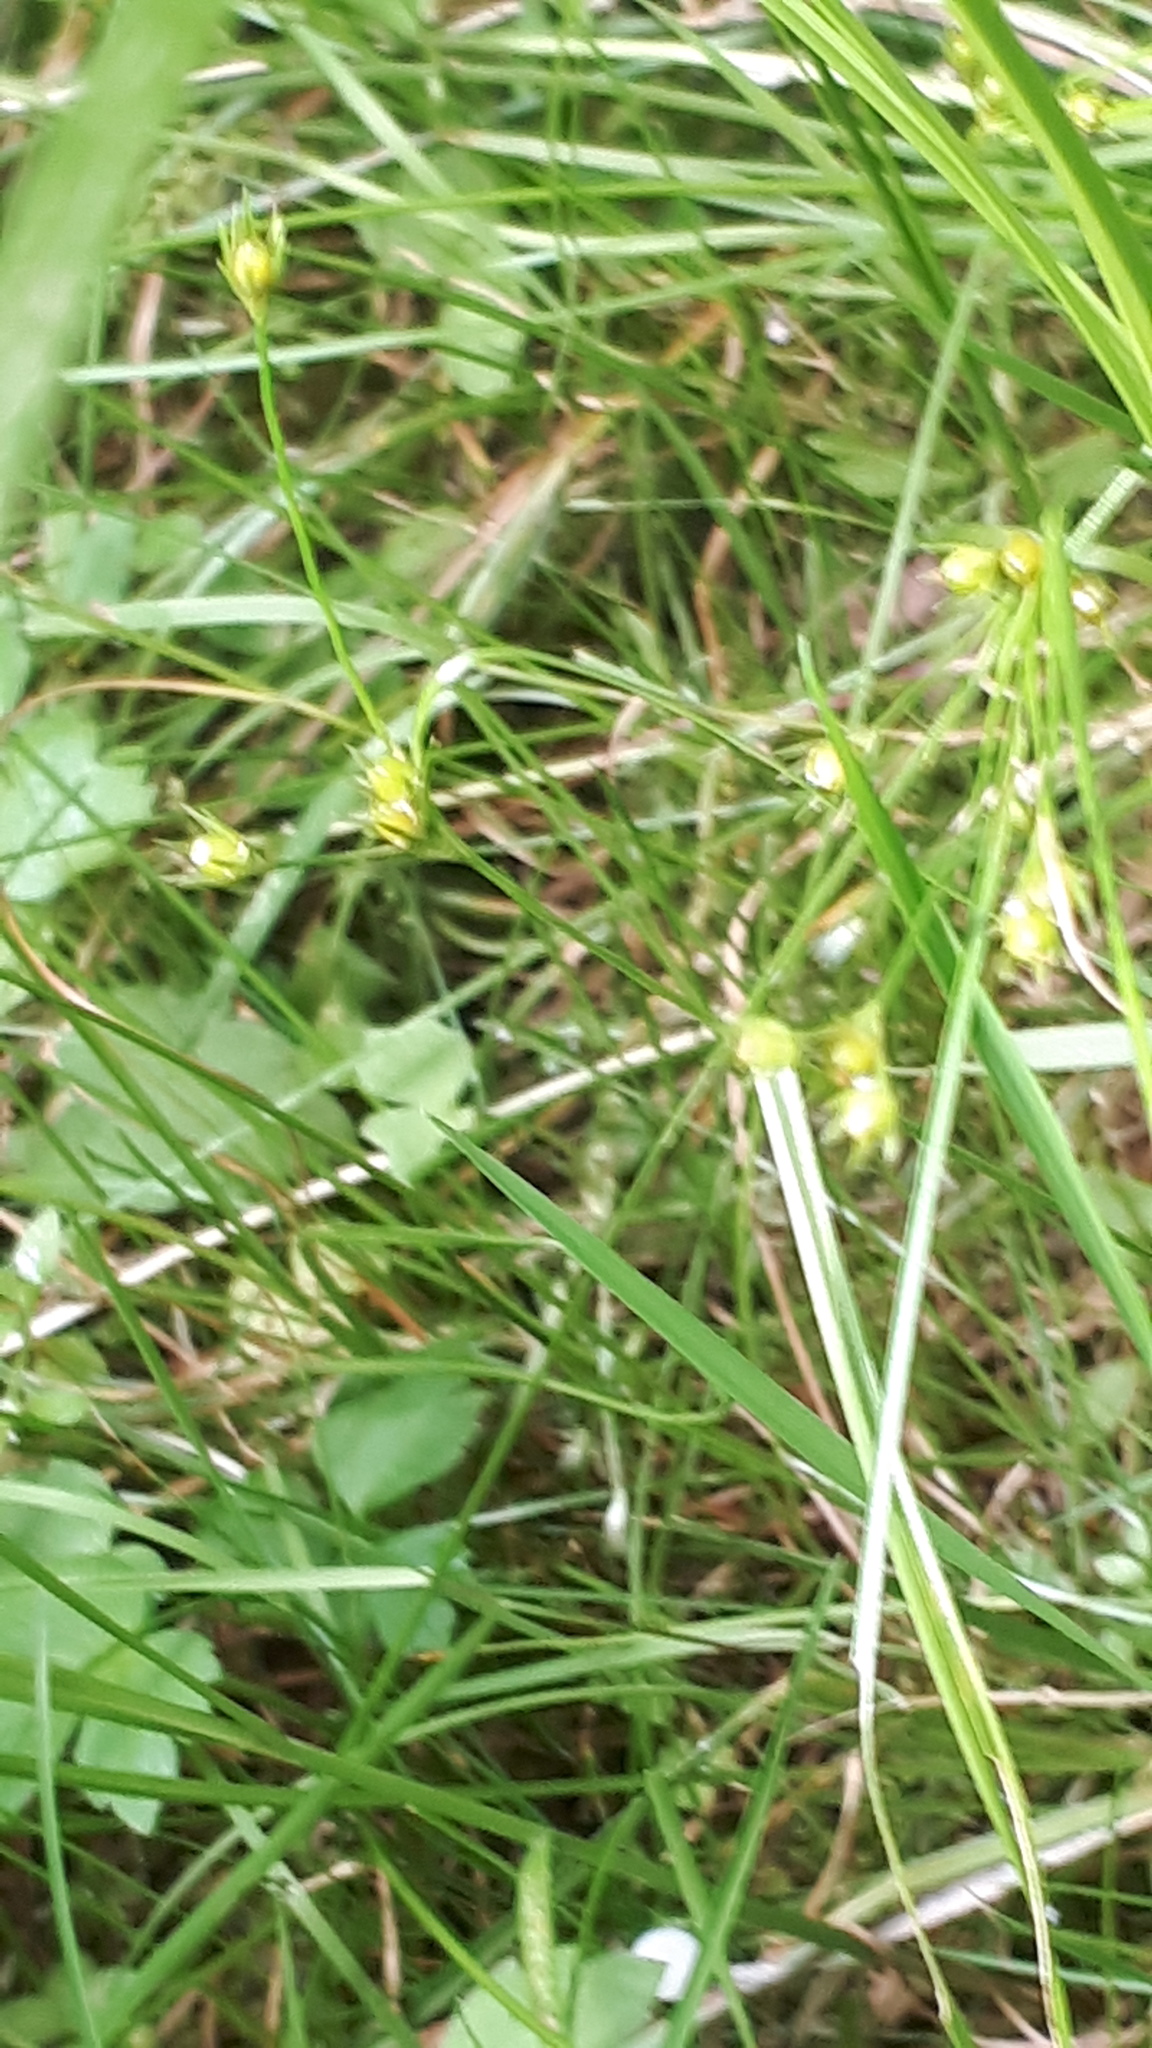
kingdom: Plantae
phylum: Tracheophyta
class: Liliopsida
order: Poales
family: Juncaceae
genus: Juncus
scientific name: Juncus tenuis
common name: Slender rush
